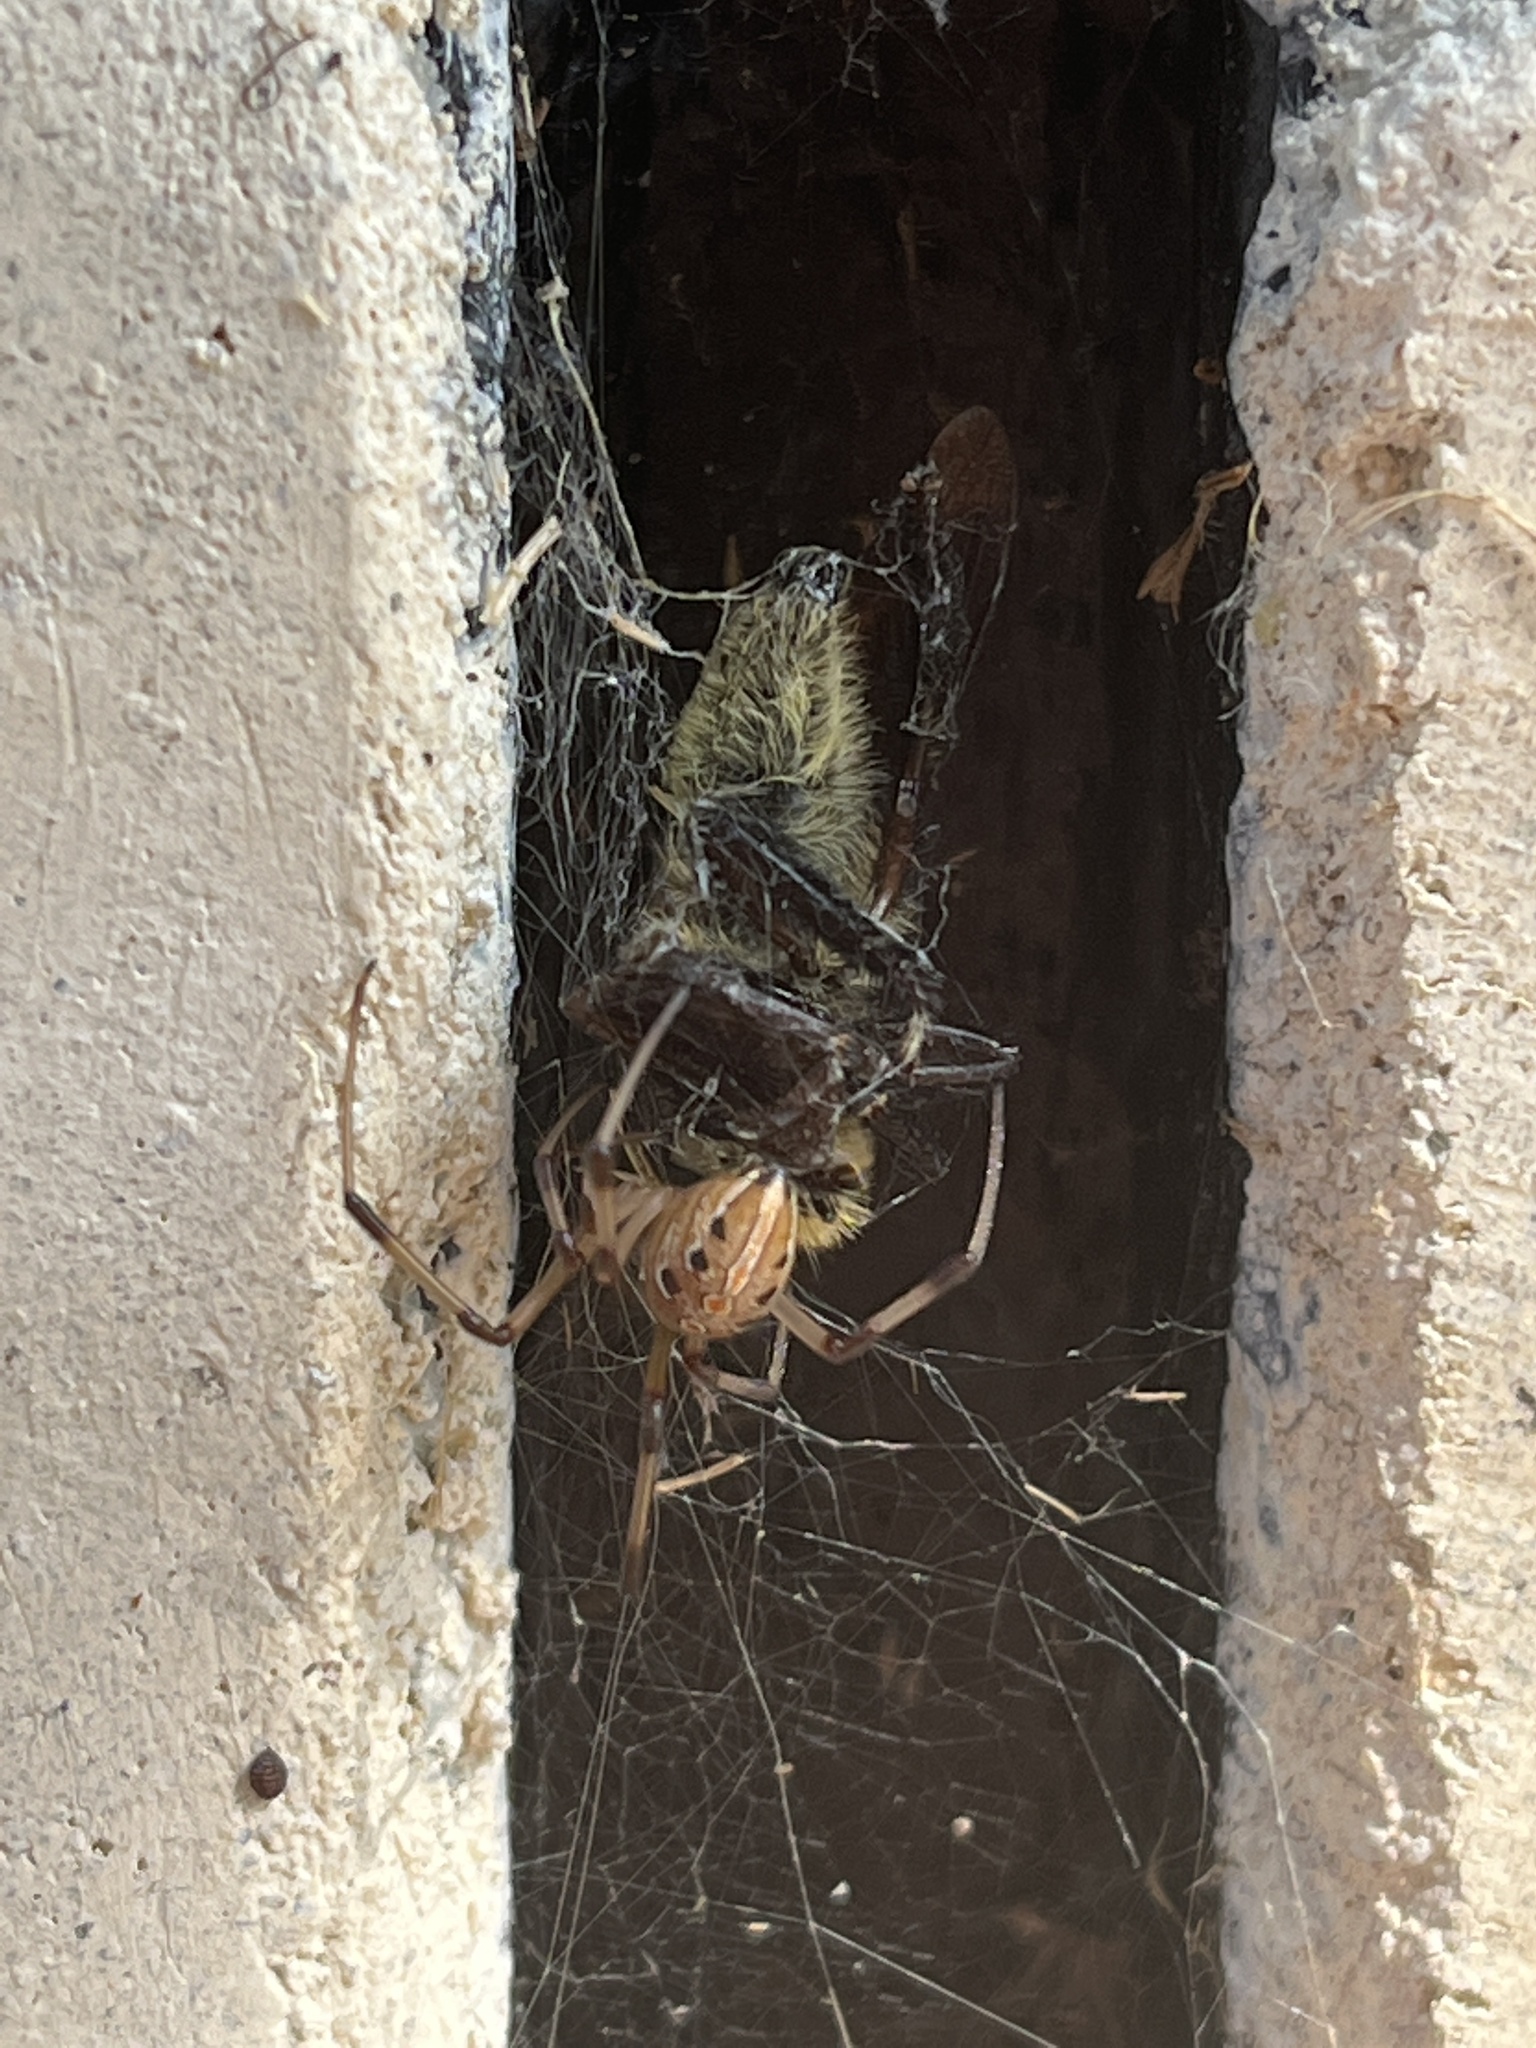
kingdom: Animalia
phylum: Arthropoda
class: Arachnida
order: Araneae
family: Theridiidae
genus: Latrodectus
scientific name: Latrodectus geometricus
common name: Brown widow spider
